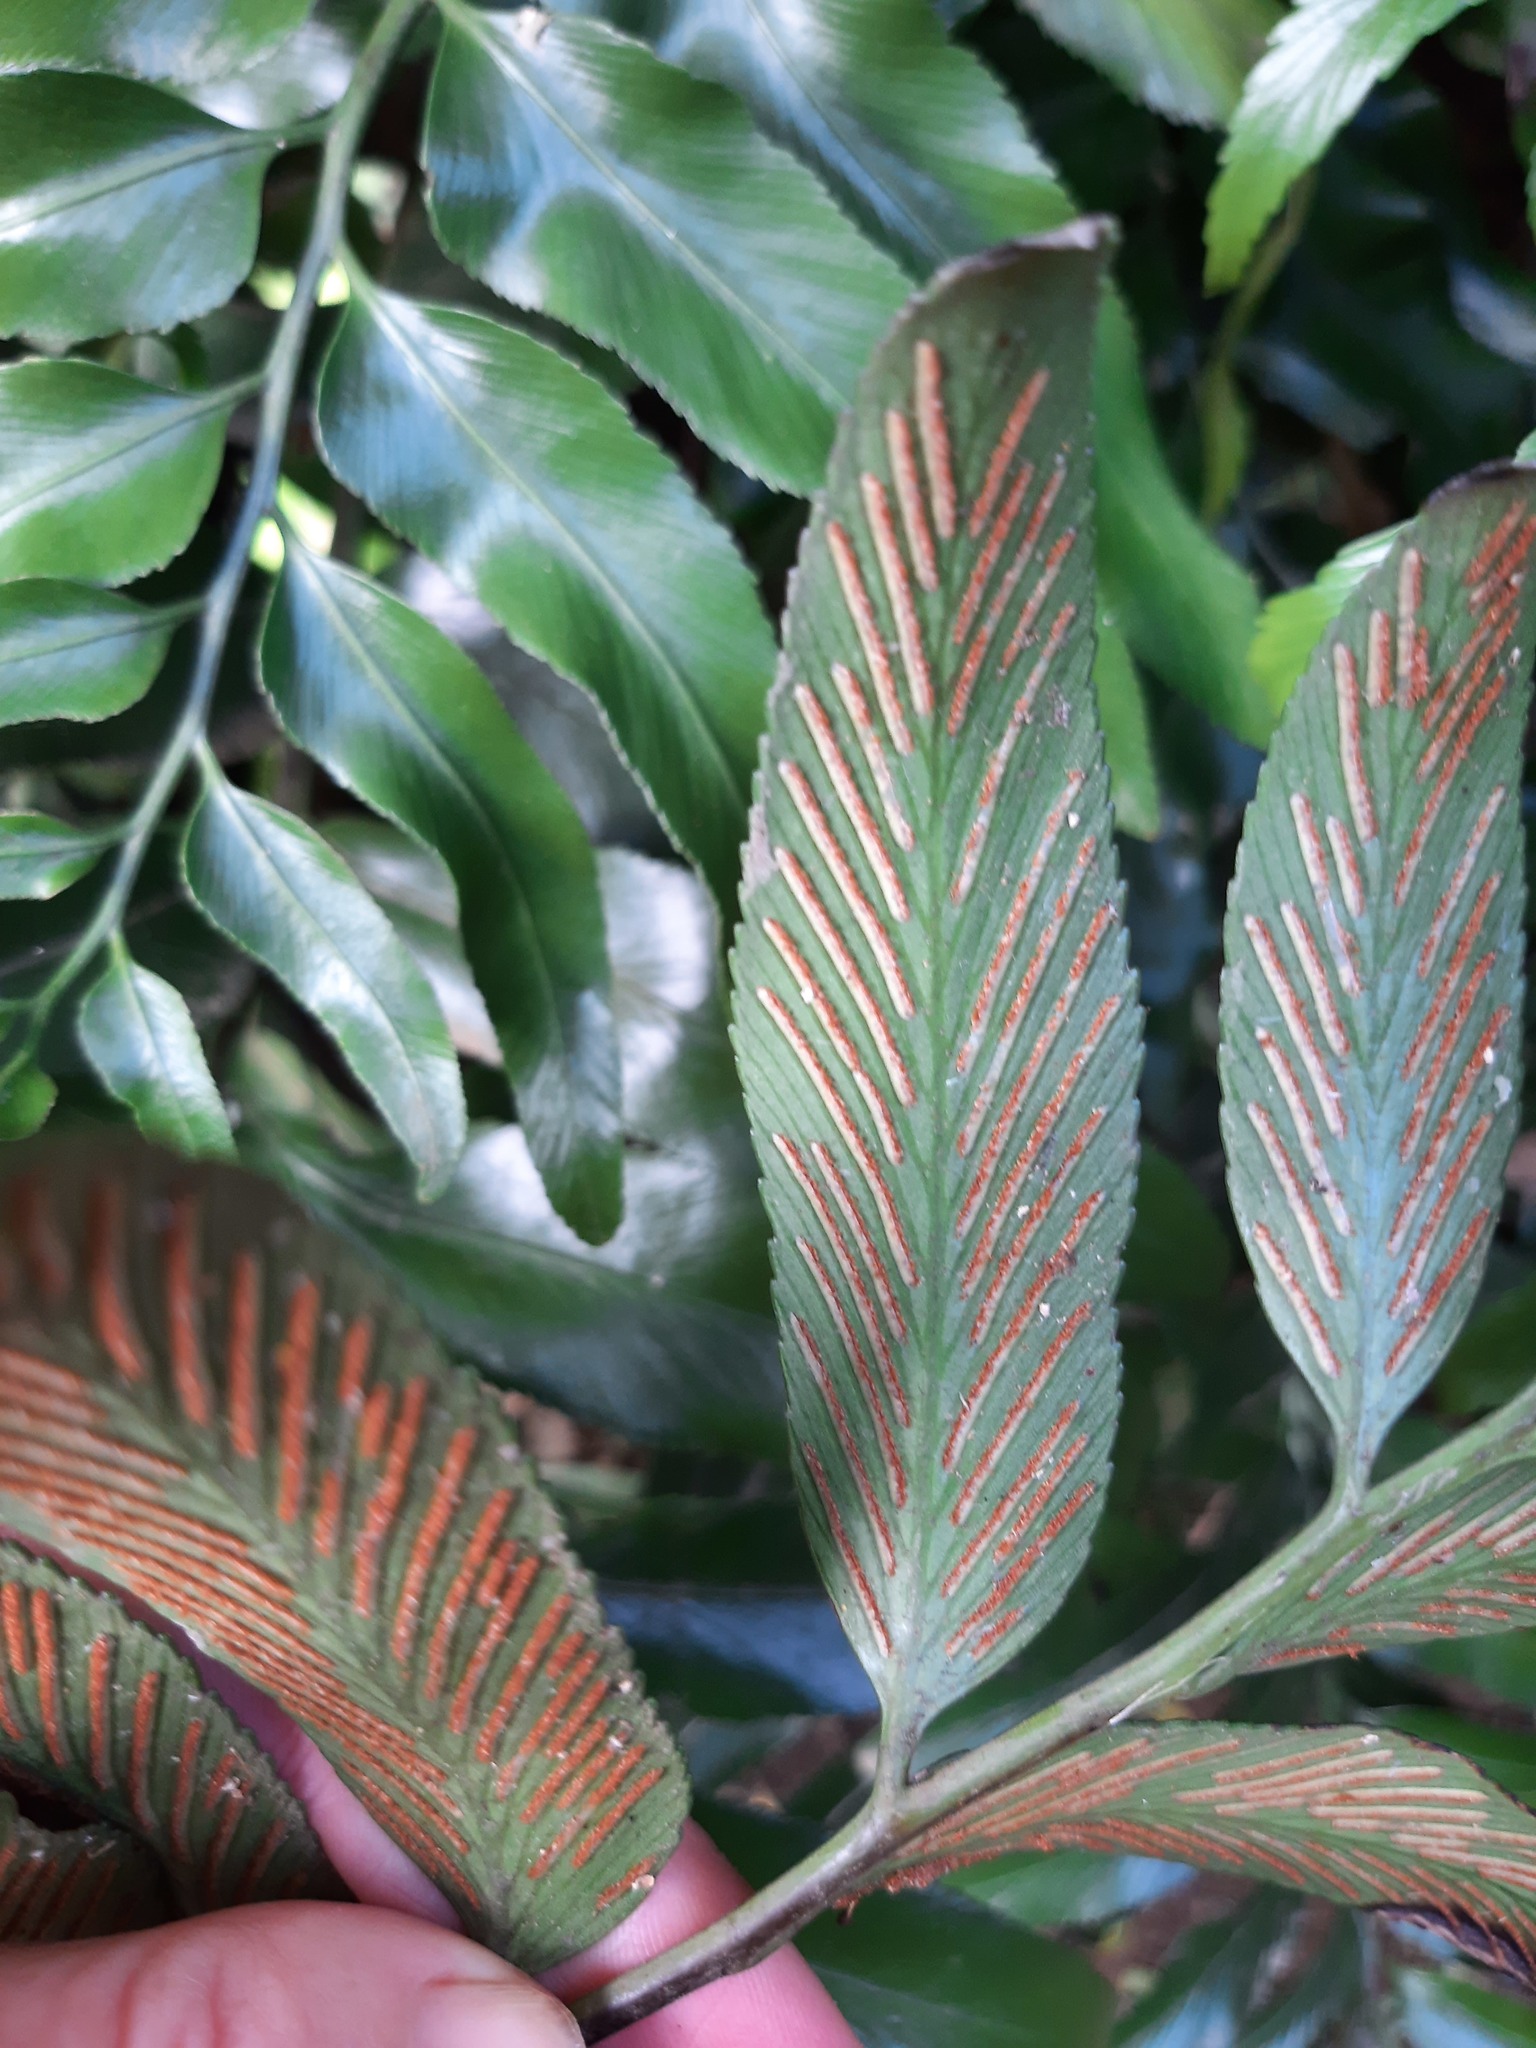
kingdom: Plantae
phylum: Tracheophyta
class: Polypodiopsida
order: Polypodiales
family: Aspleniaceae
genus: Asplenium
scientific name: Asplenium oblongifolium
